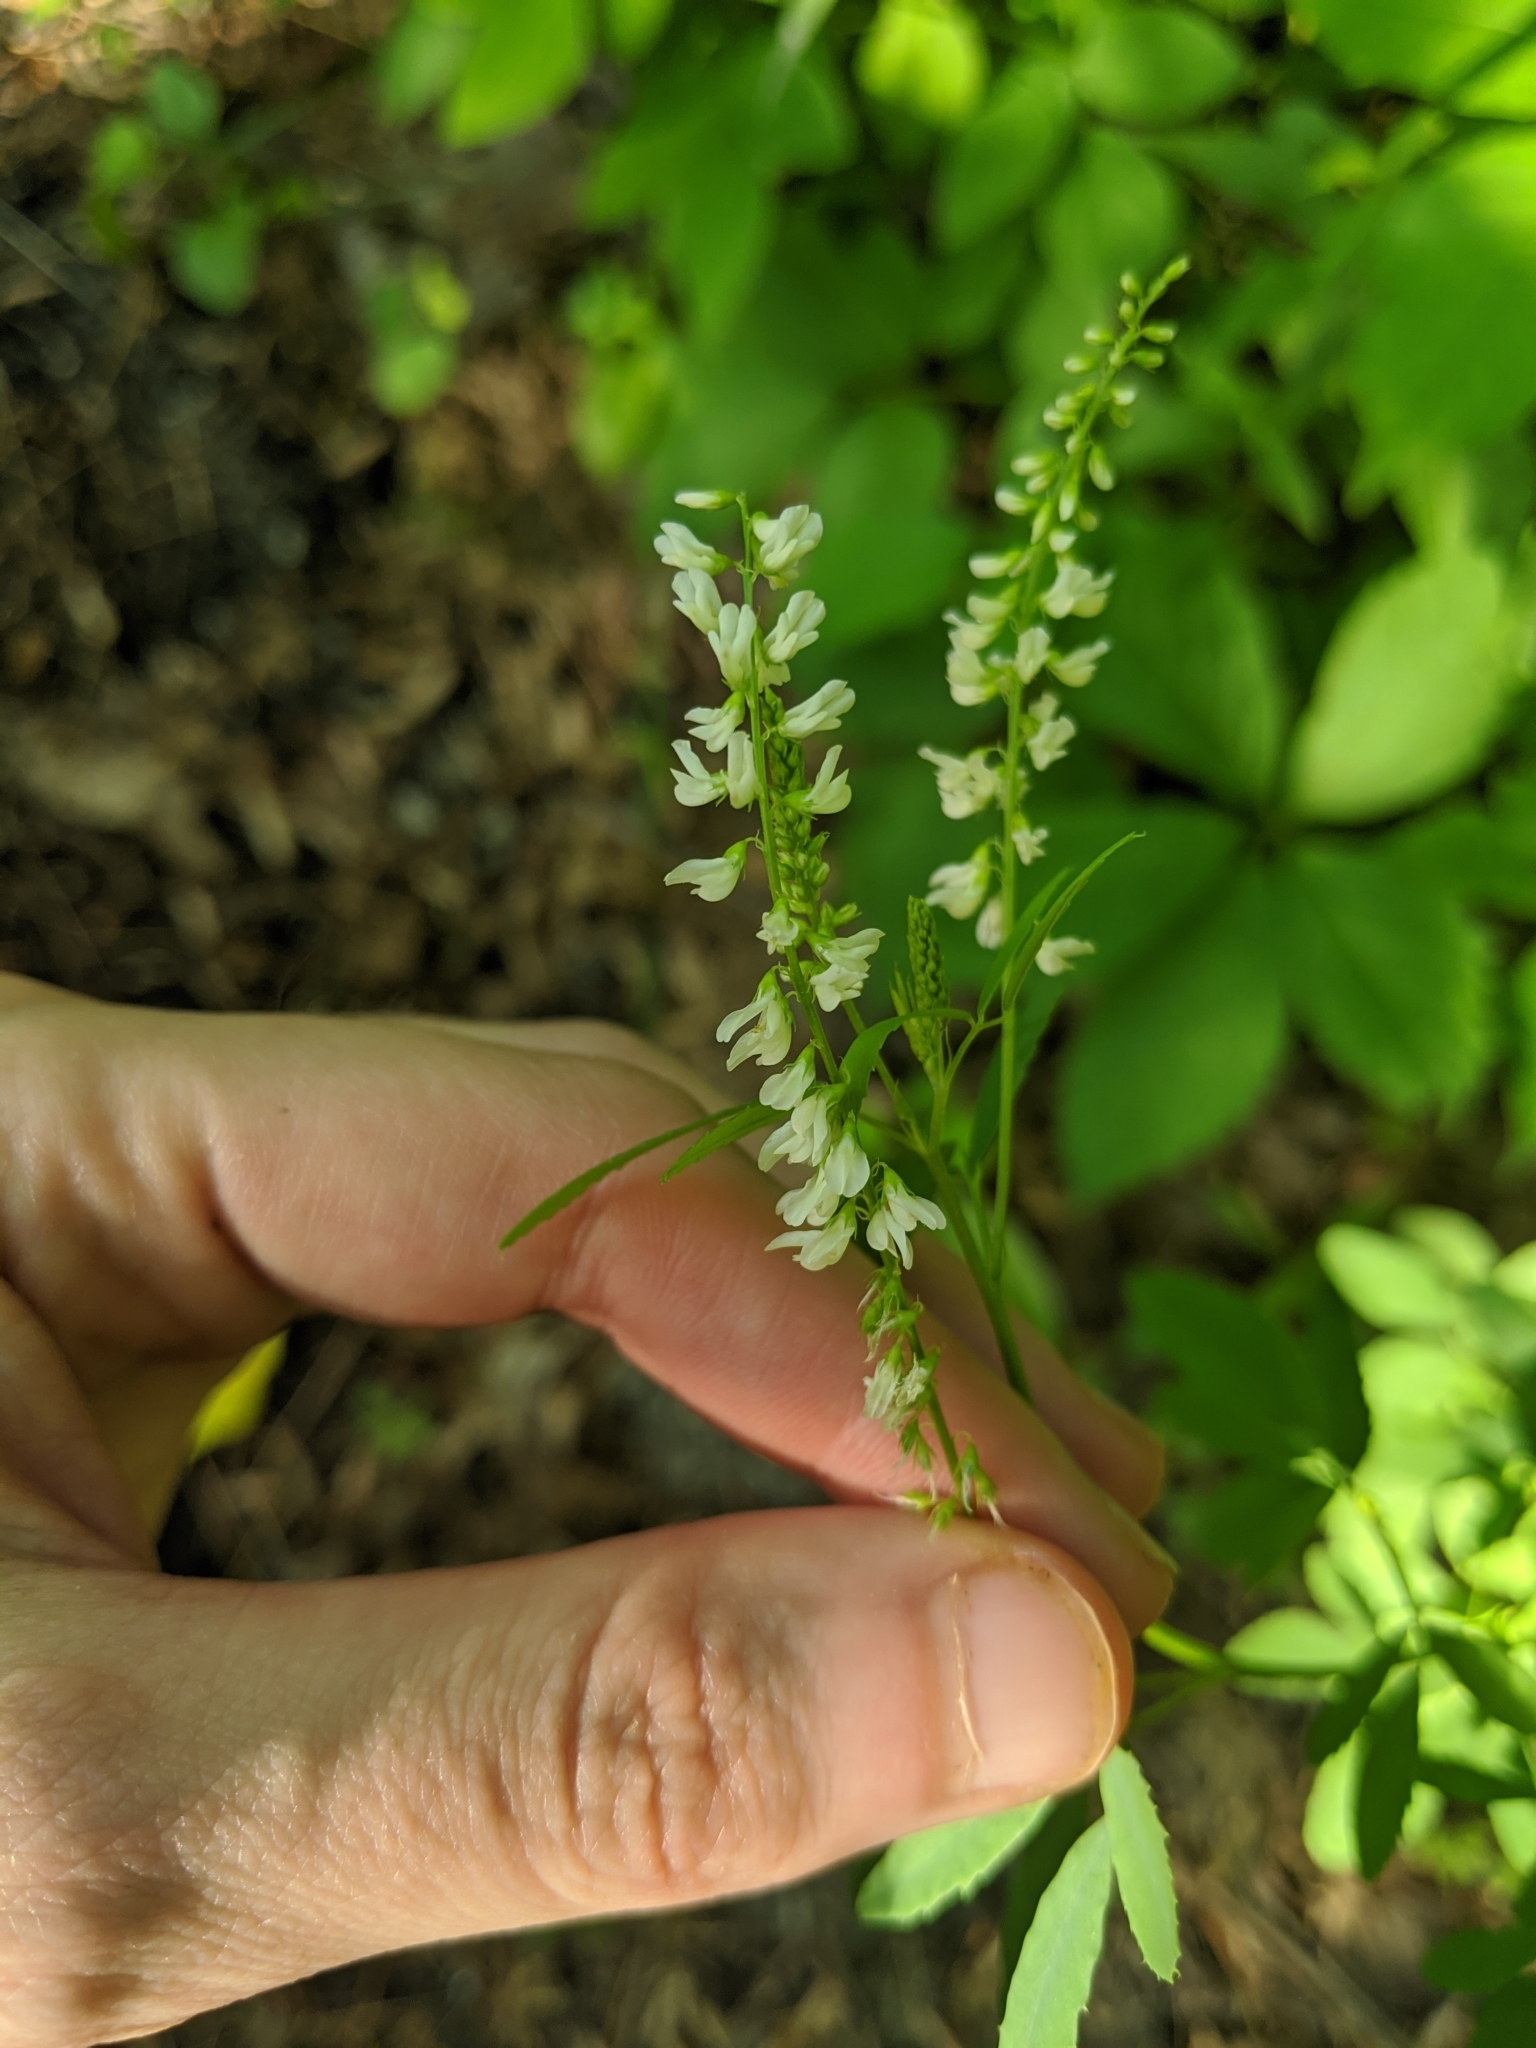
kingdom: Plantae
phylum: Tracheophyta
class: Magnoliopsida
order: Fabales
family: Fabaceae
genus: Melilotus
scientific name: Melilotus albus
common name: White melilot
